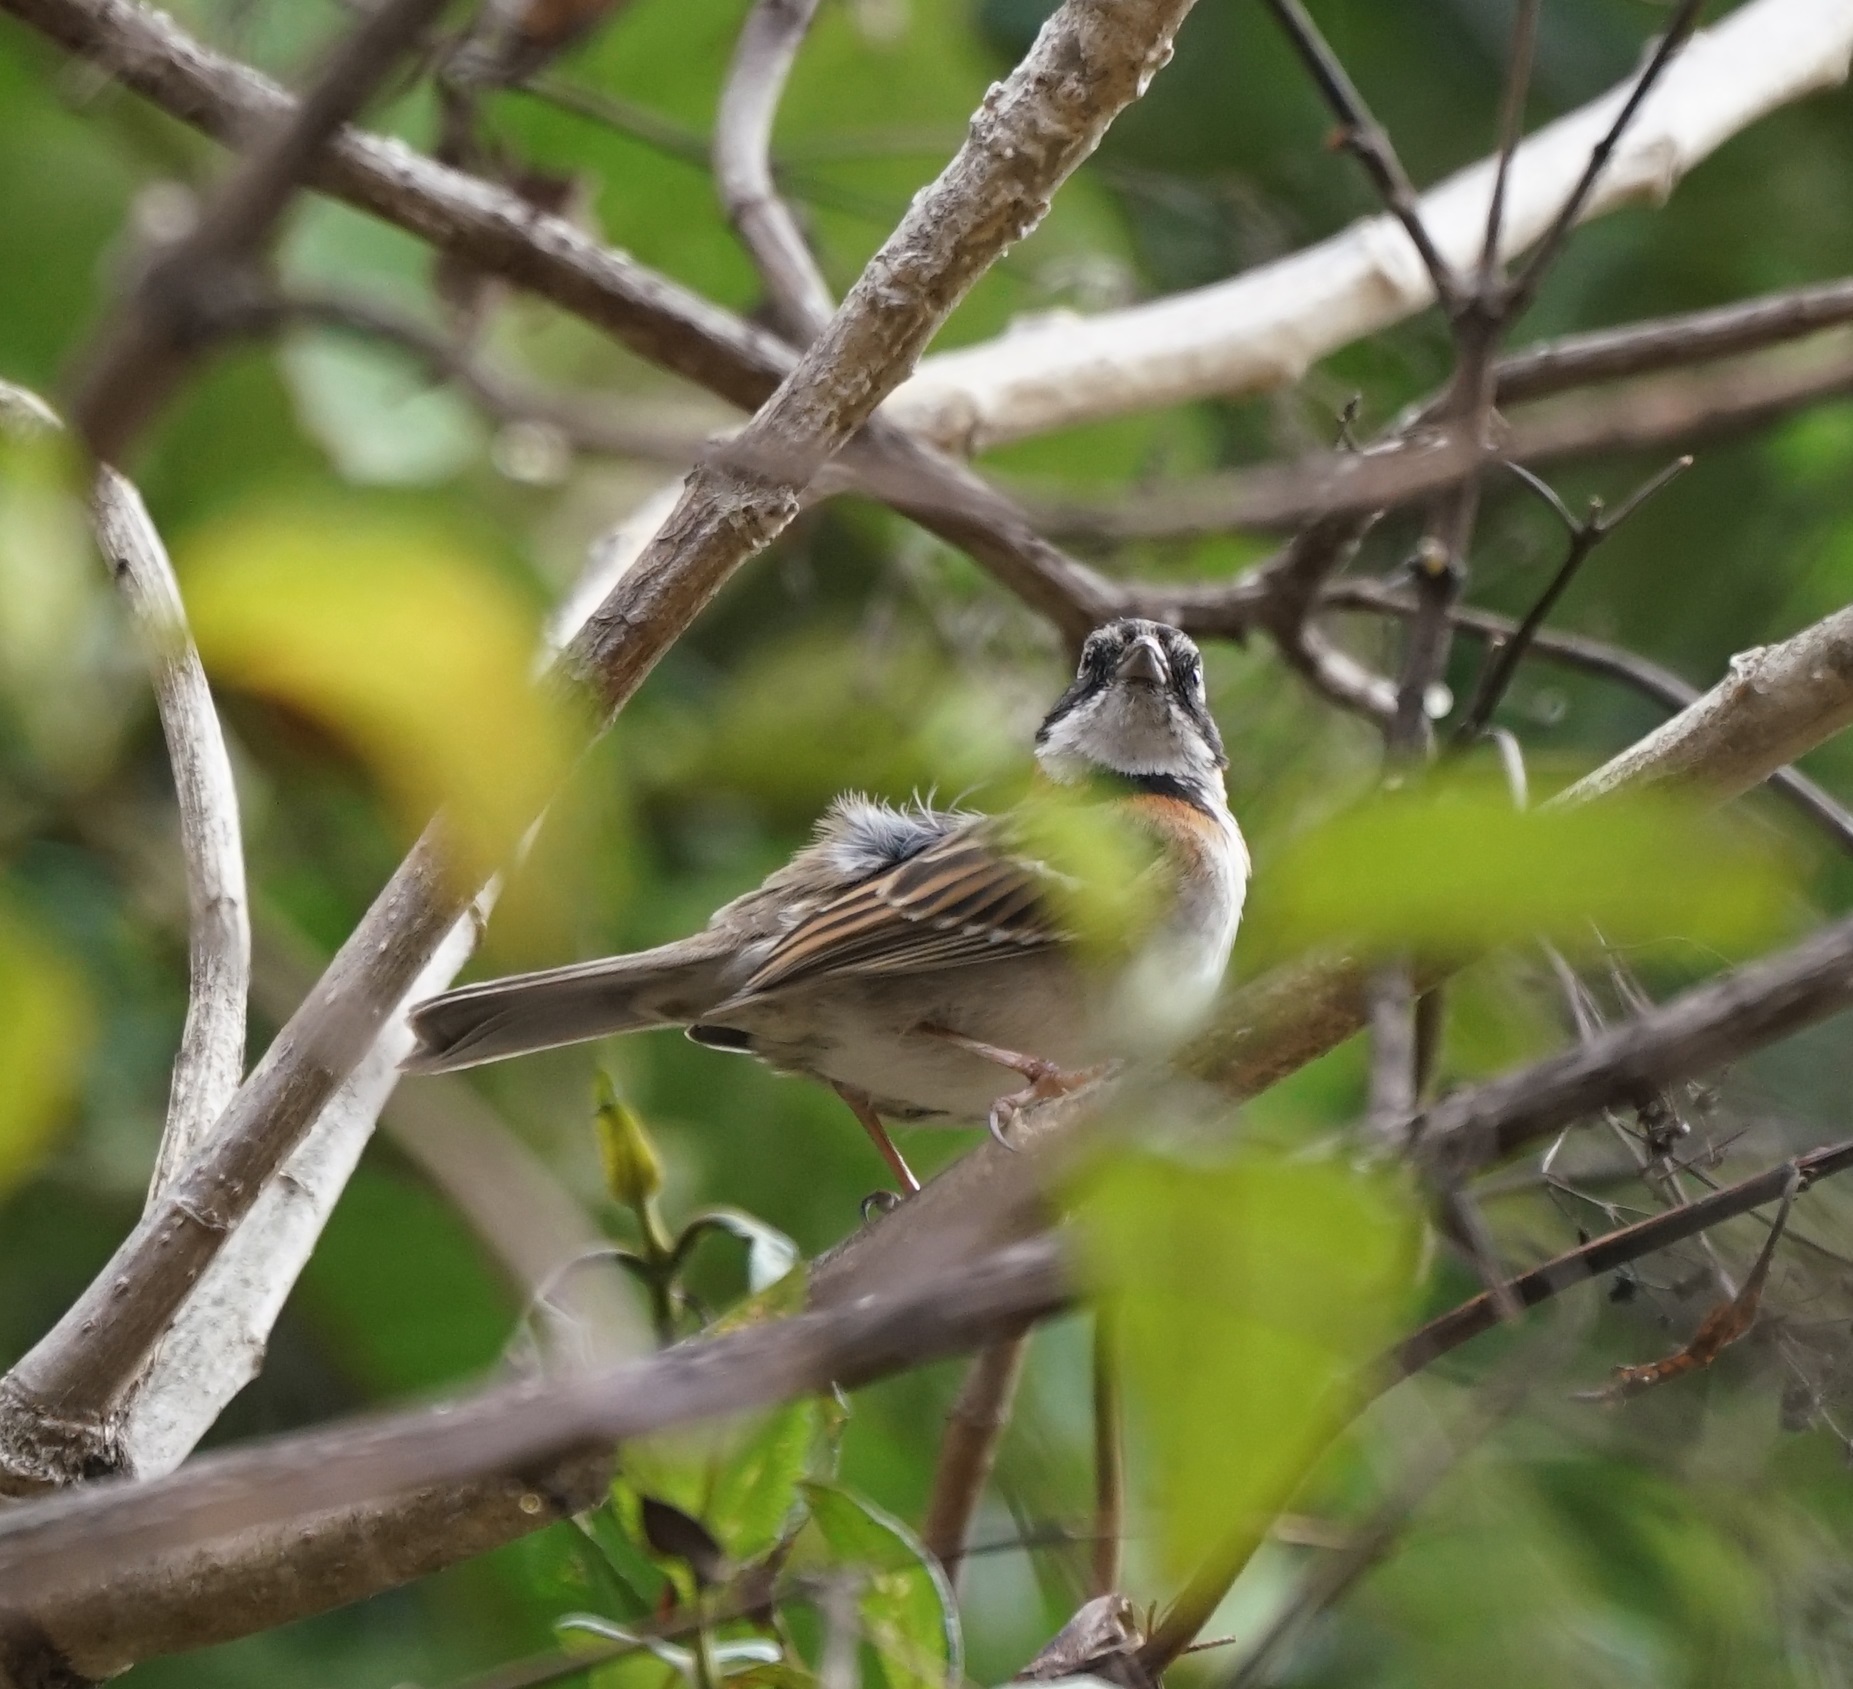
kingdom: Animalia
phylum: Chordata
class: Aves
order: Passeriformes
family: Passerellidae
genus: Zonotrichia
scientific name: Zonotrichia capensis
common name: Rufous-collared sparrow
